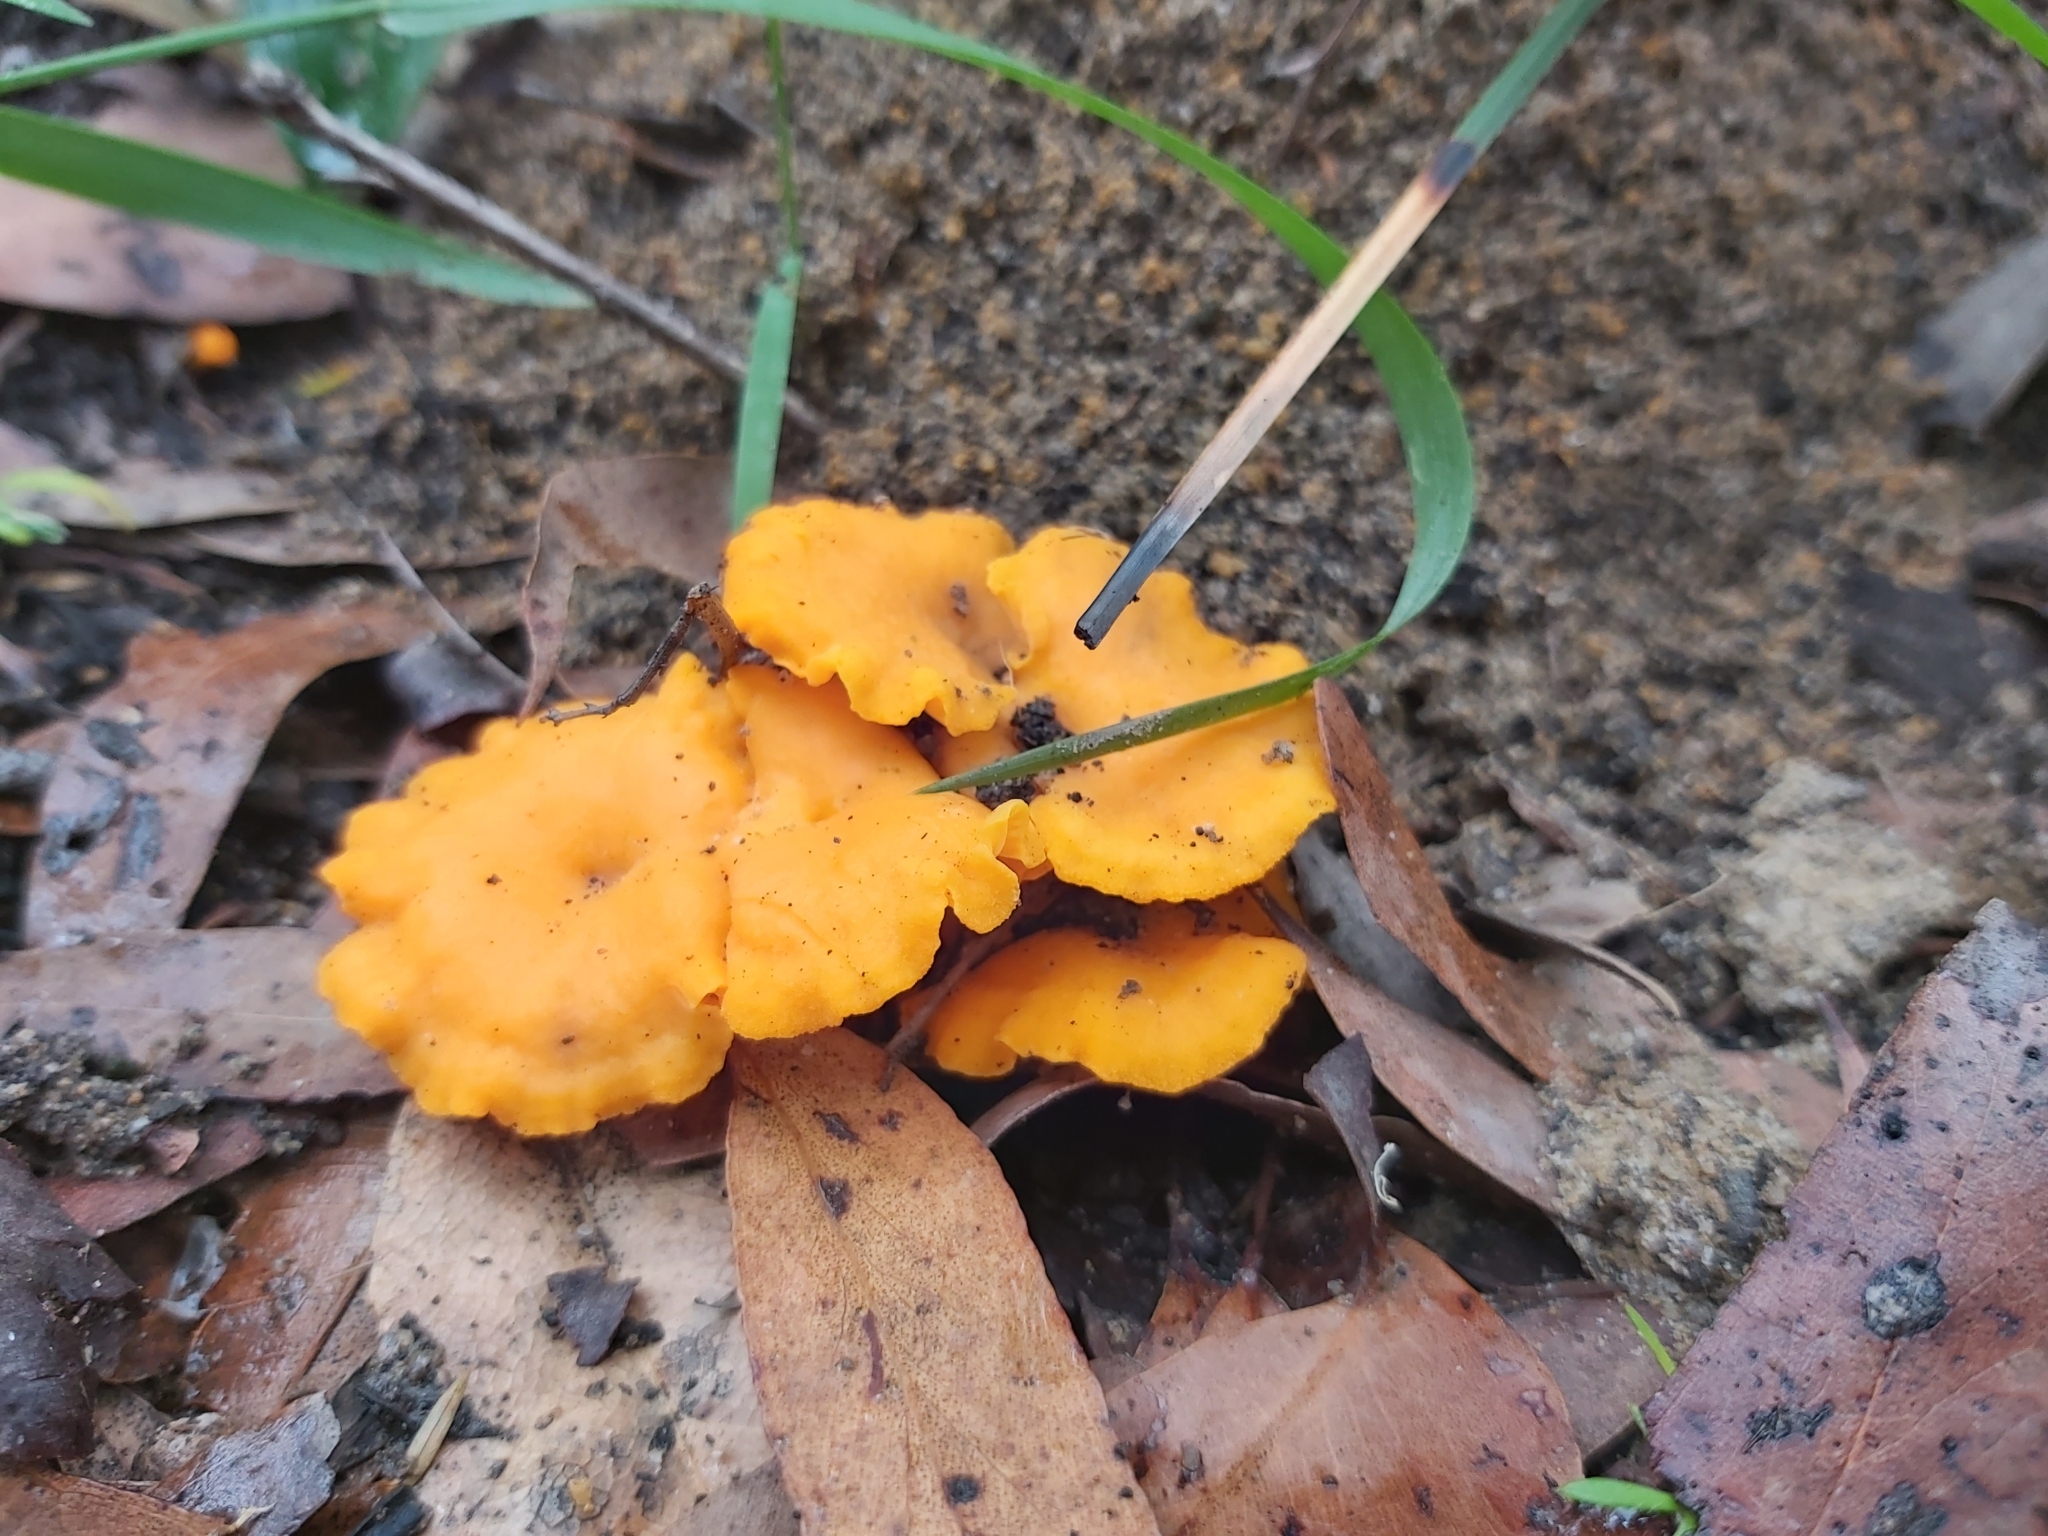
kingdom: Fungi
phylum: Basidiomycota
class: Agaricomycetes
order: Cantharellales
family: Hydnaceae
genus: Cantharellus
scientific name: Cantharellus
